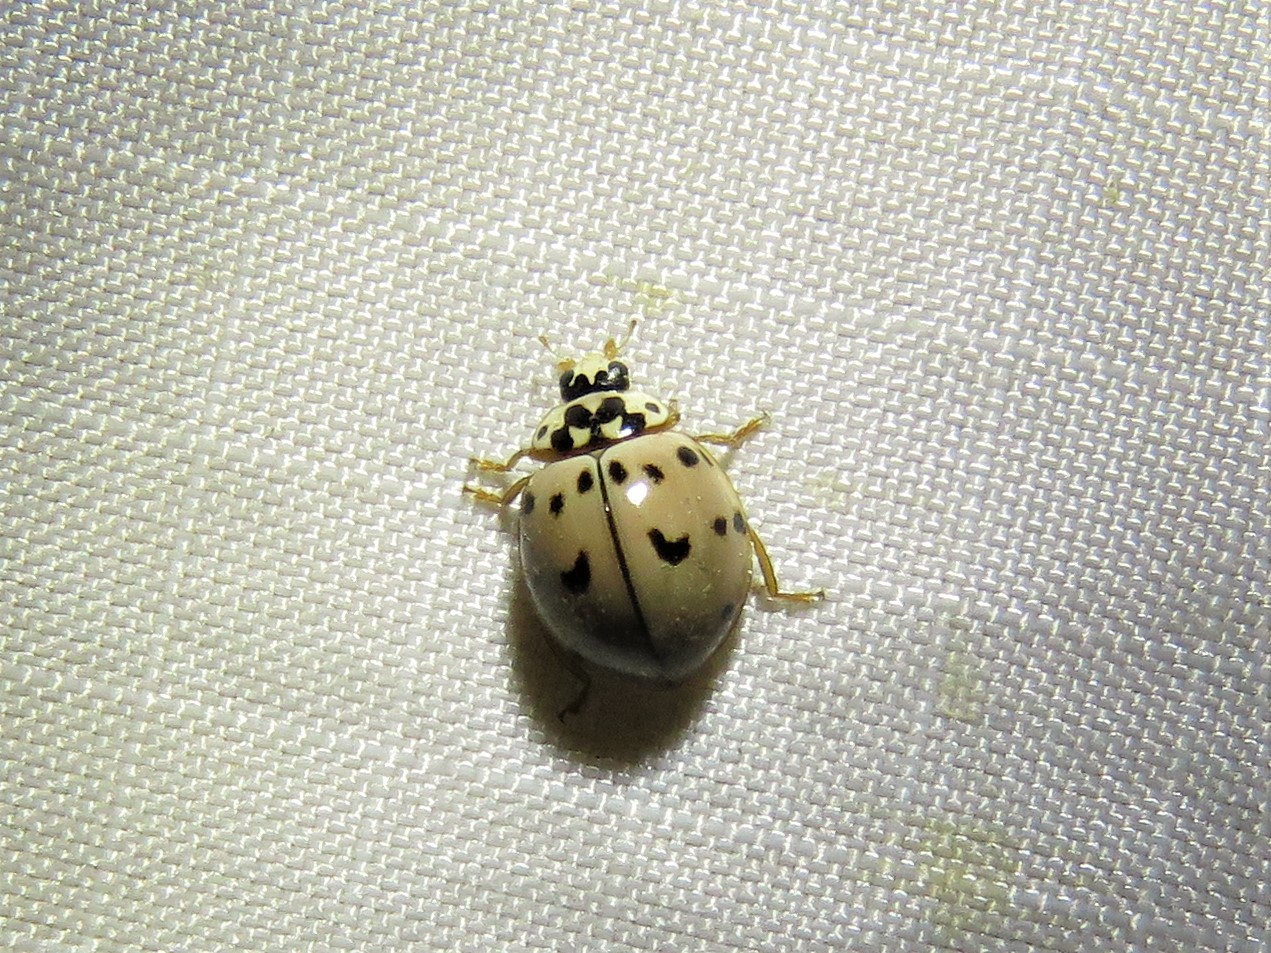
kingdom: Animalia
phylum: Arthropoda
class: Insecta
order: Coleoptera
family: Coccinellidae
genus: Olla
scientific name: Olla v-nigrum
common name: Ashy gray lady beetle
